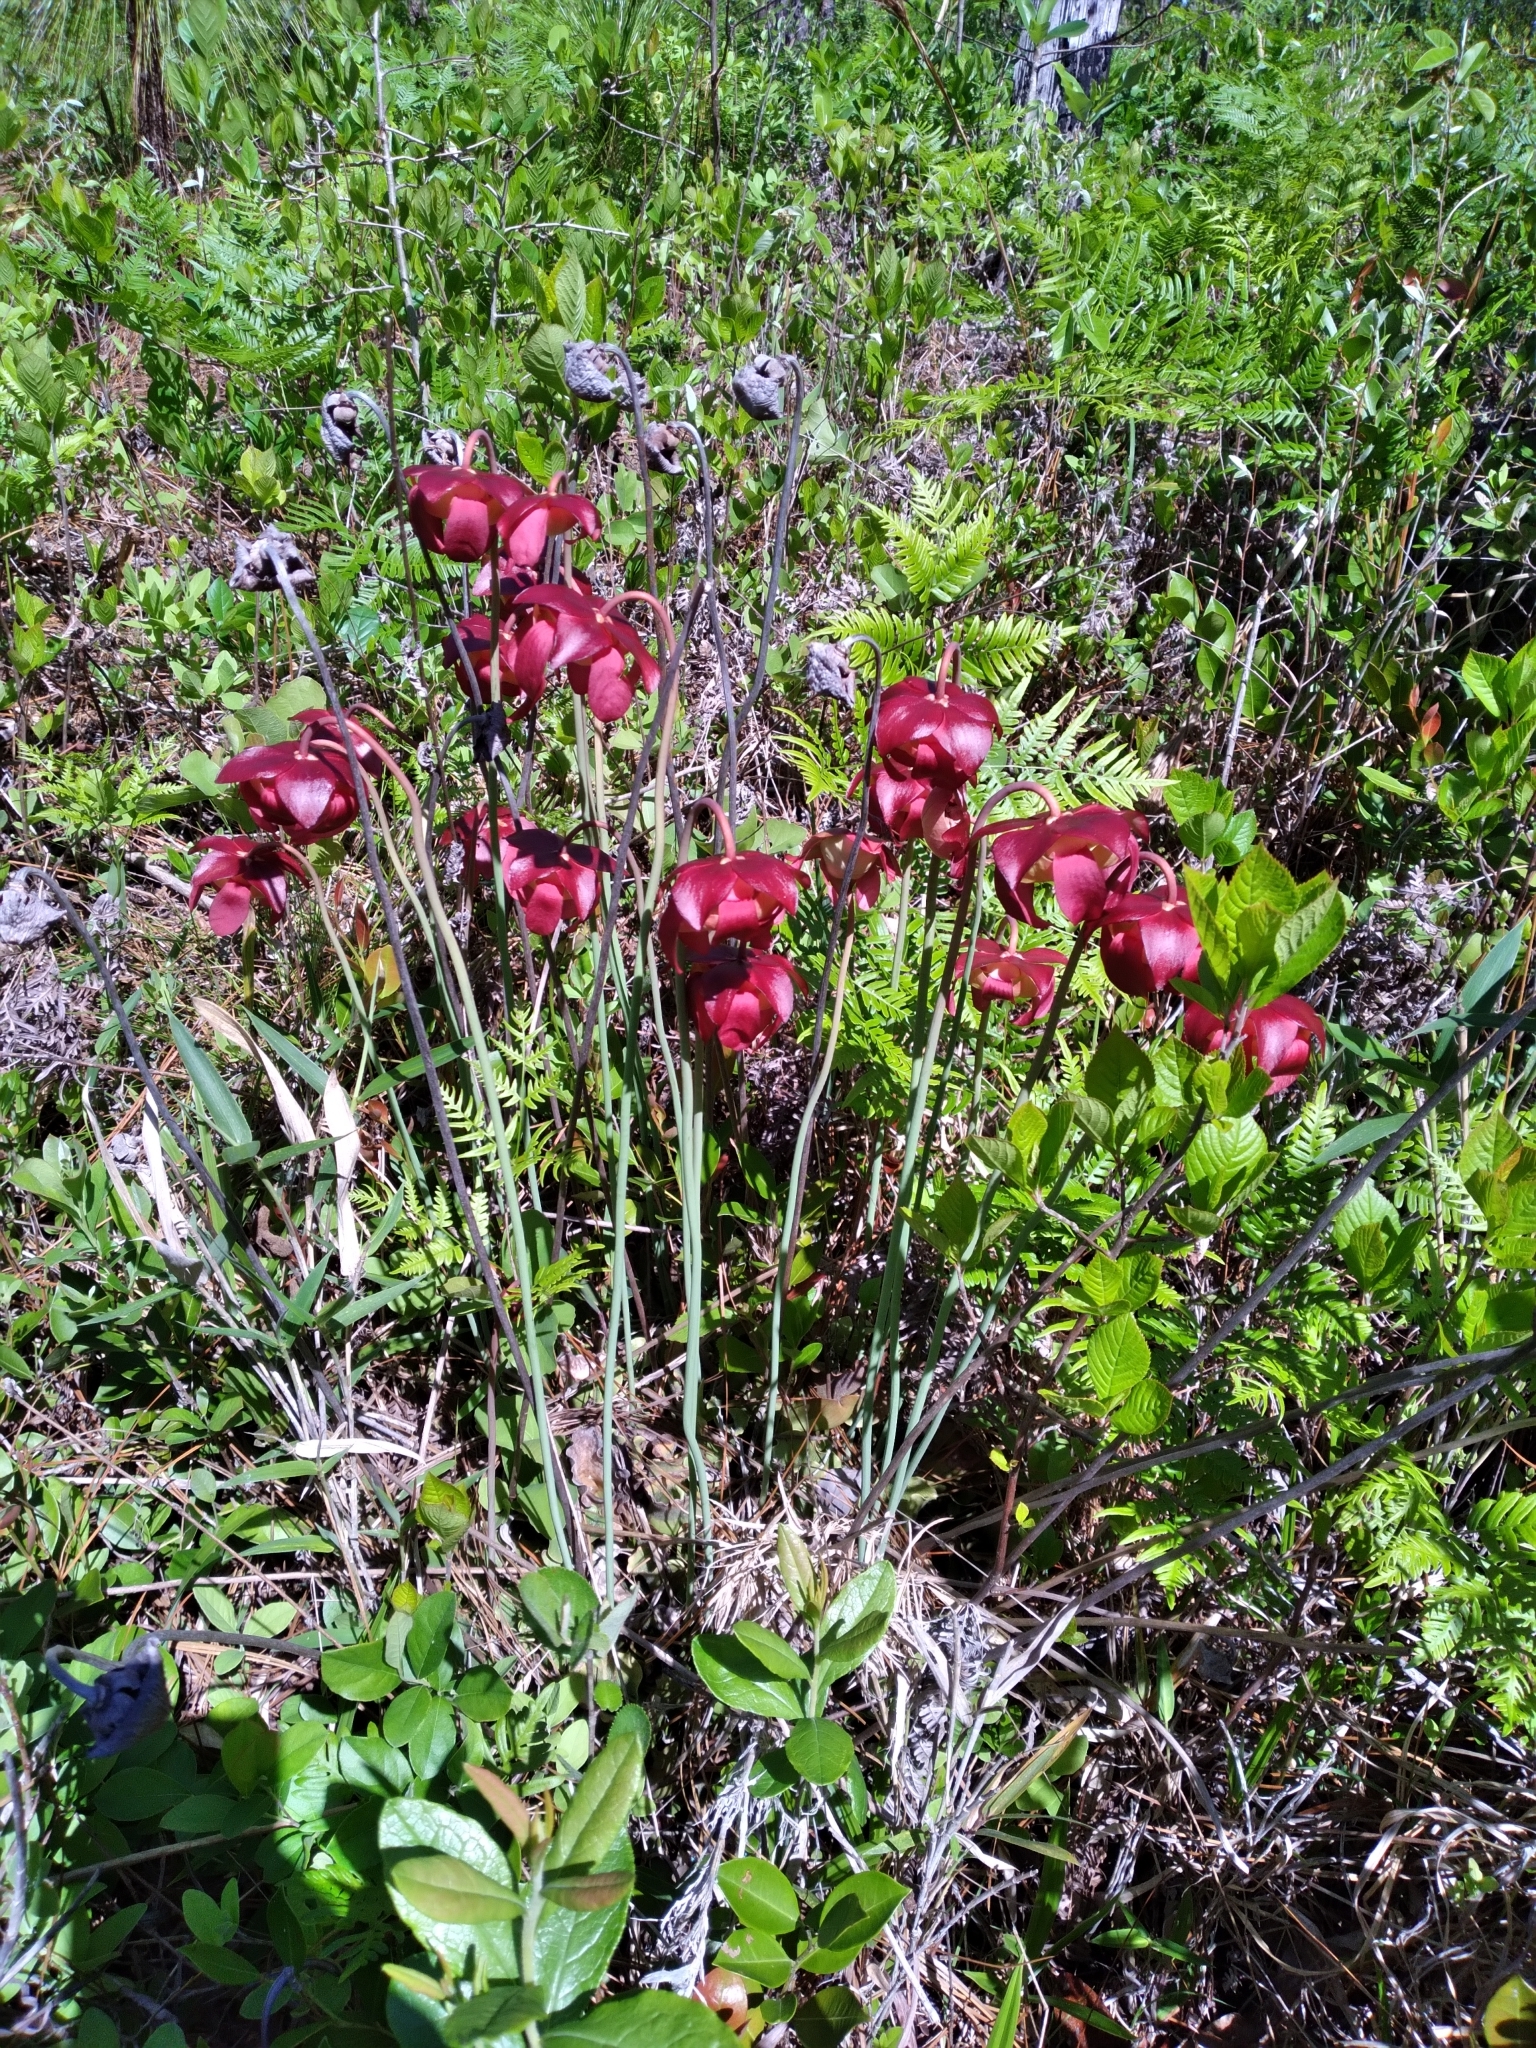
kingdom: Plantae
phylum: Tracheophyta
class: Magnoliopsida
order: Ericales
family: Sarraceniaceae
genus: Sarracenia
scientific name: Sarracenia purpurea
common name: Pitcherplant
